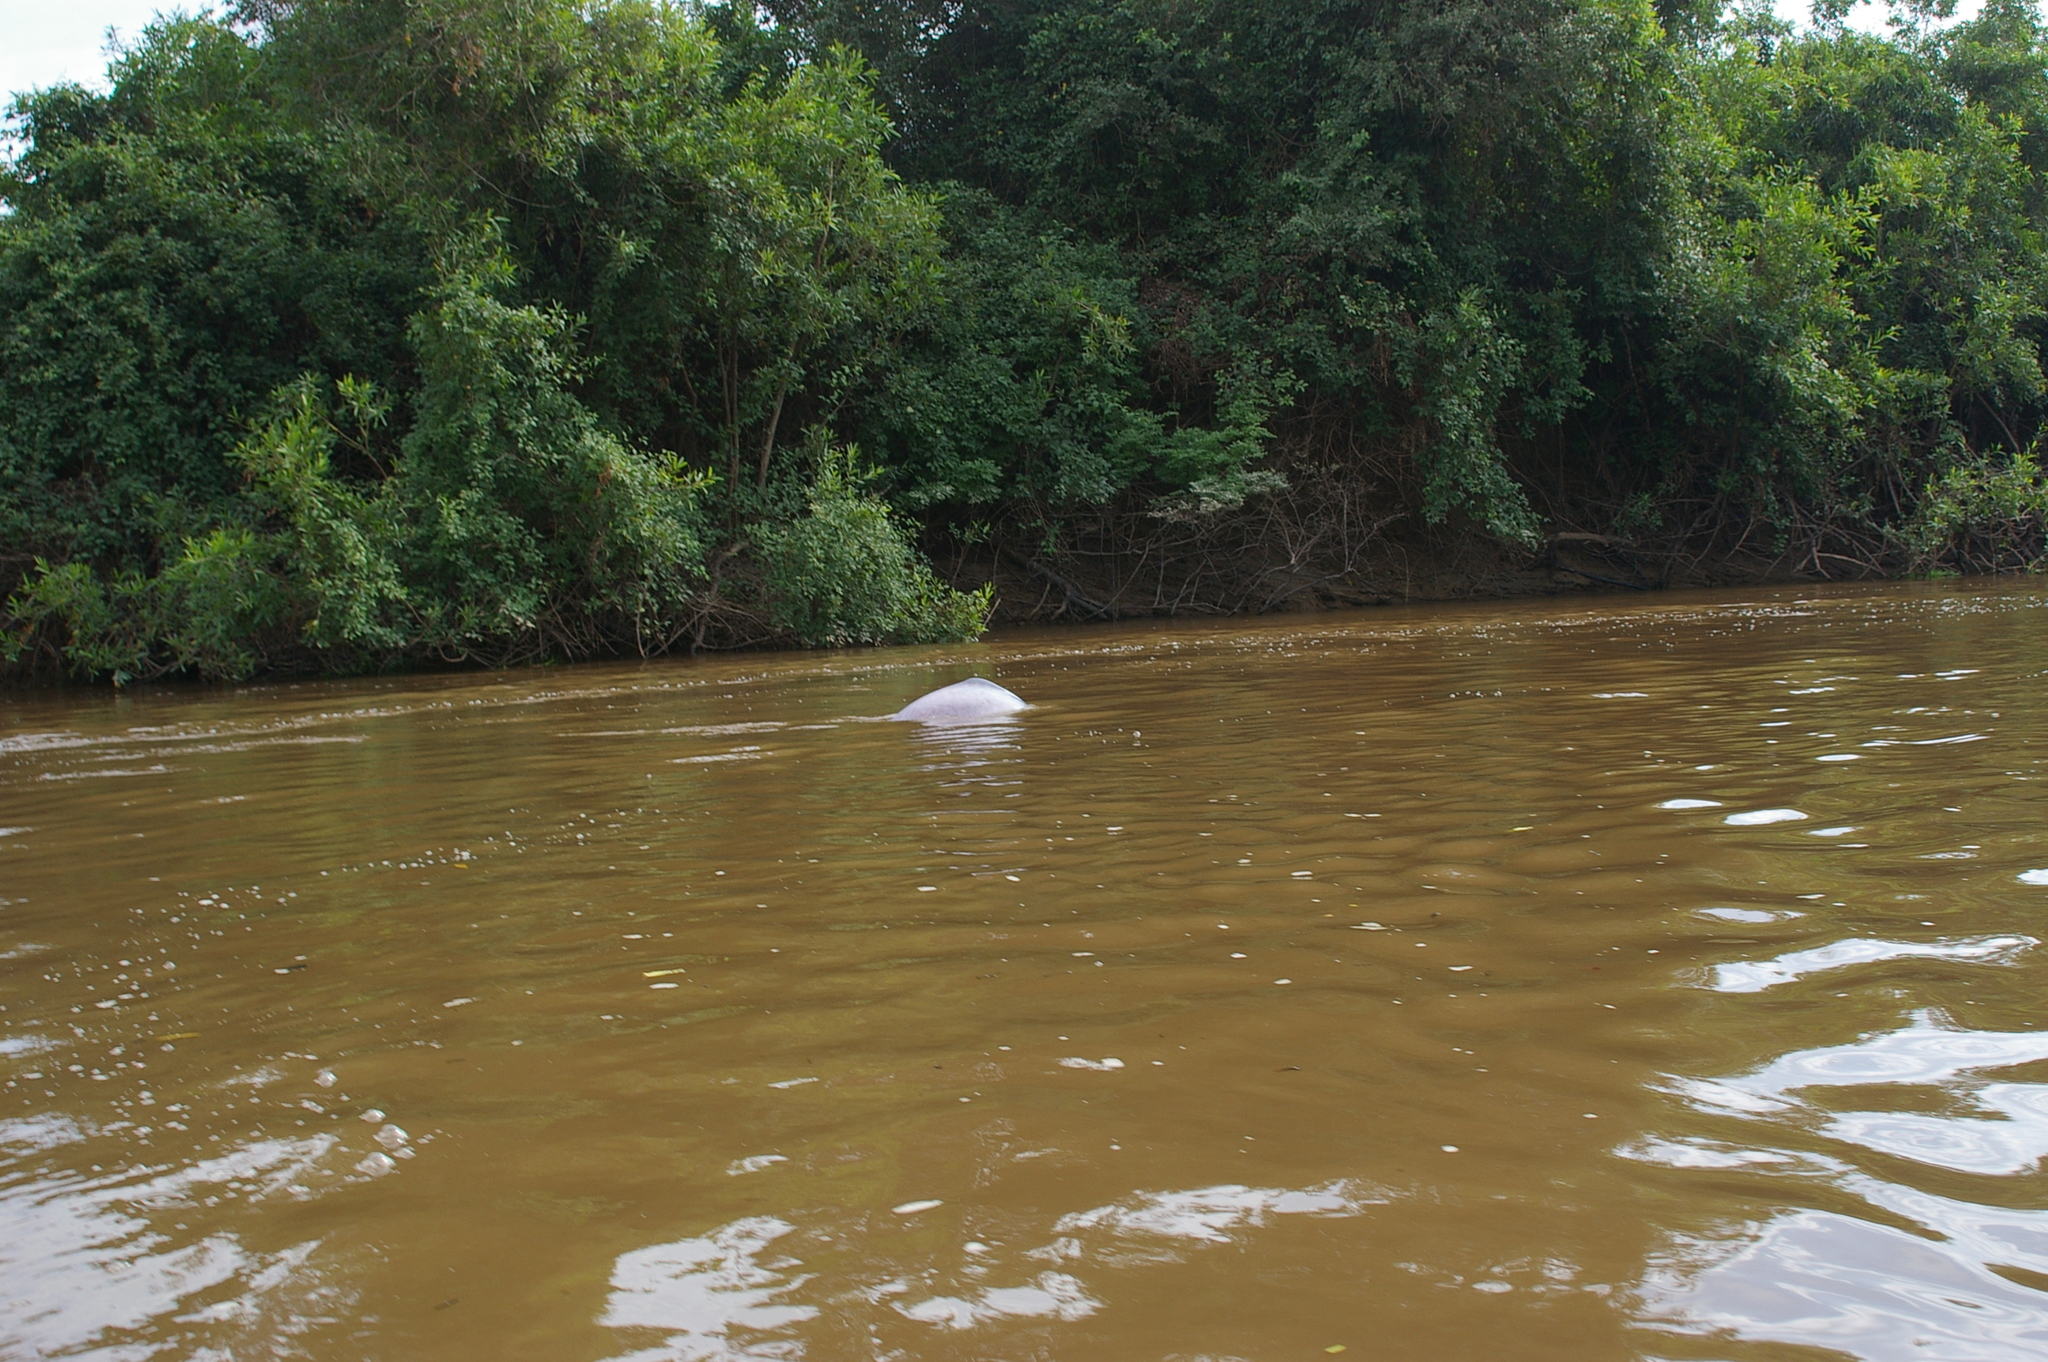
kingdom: Animalia
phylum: Chordata
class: Mammalia
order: Cetacea
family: Iniidae
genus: Inia
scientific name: Inia geoffrensis
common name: Amazon river dolphin
